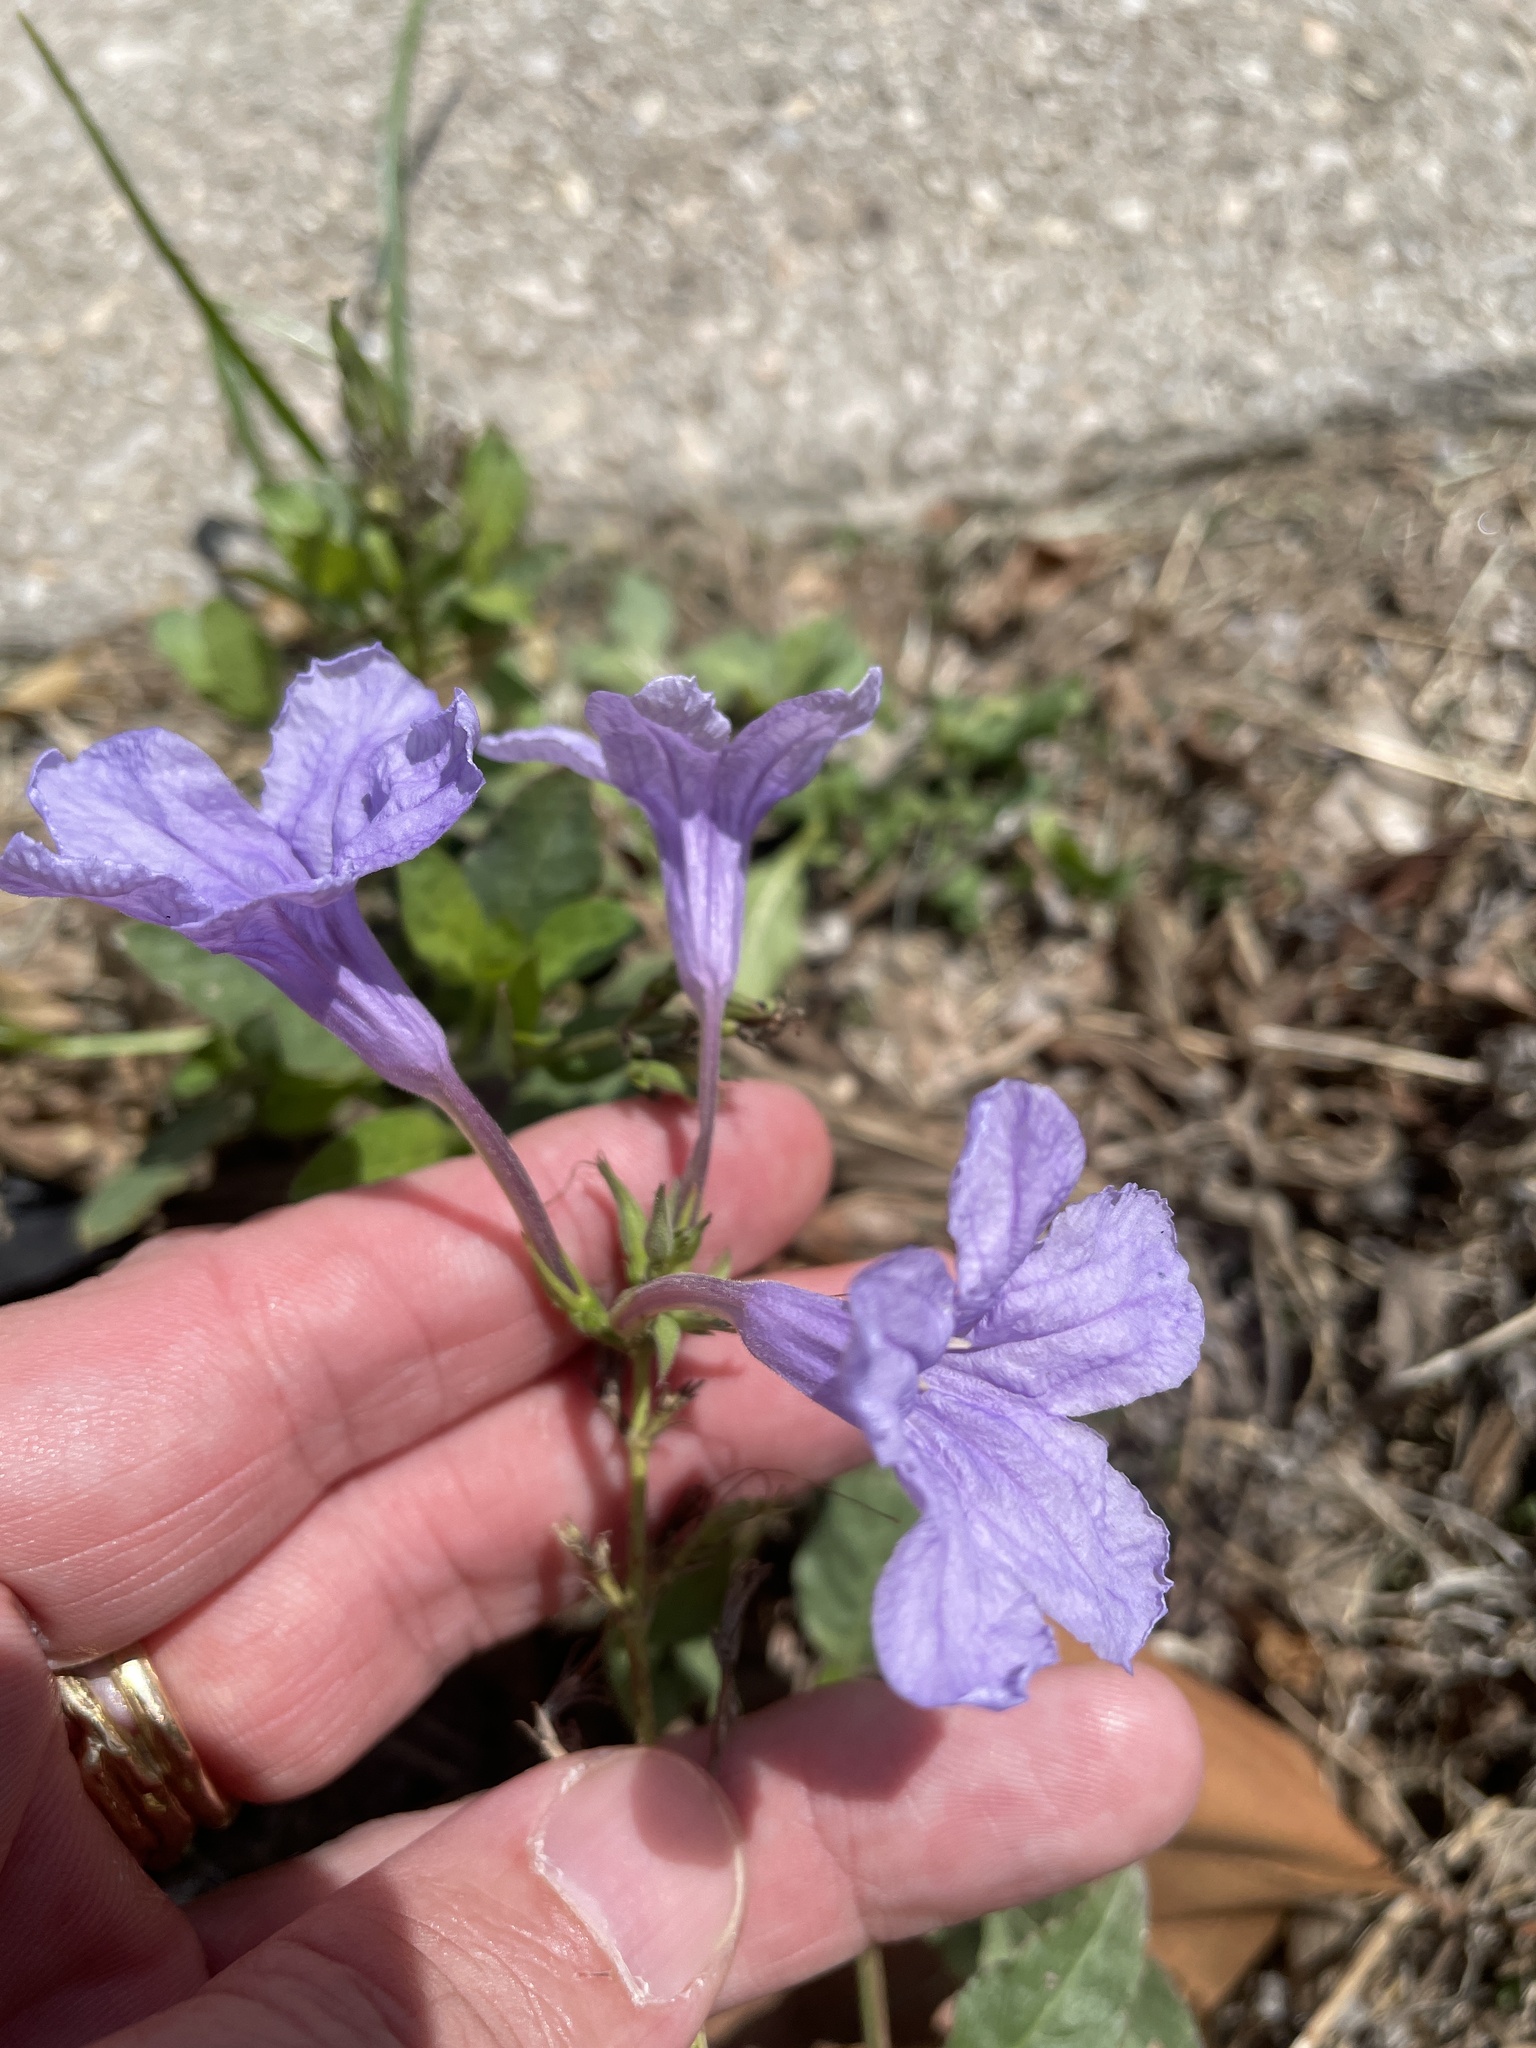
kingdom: Plantae
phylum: Tracheophyta
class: Magnoliopsida
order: Lamiales
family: Acanthaceae
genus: Ruellia
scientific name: Ruellia ciliatiflora
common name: Hairyflower wild petunia
